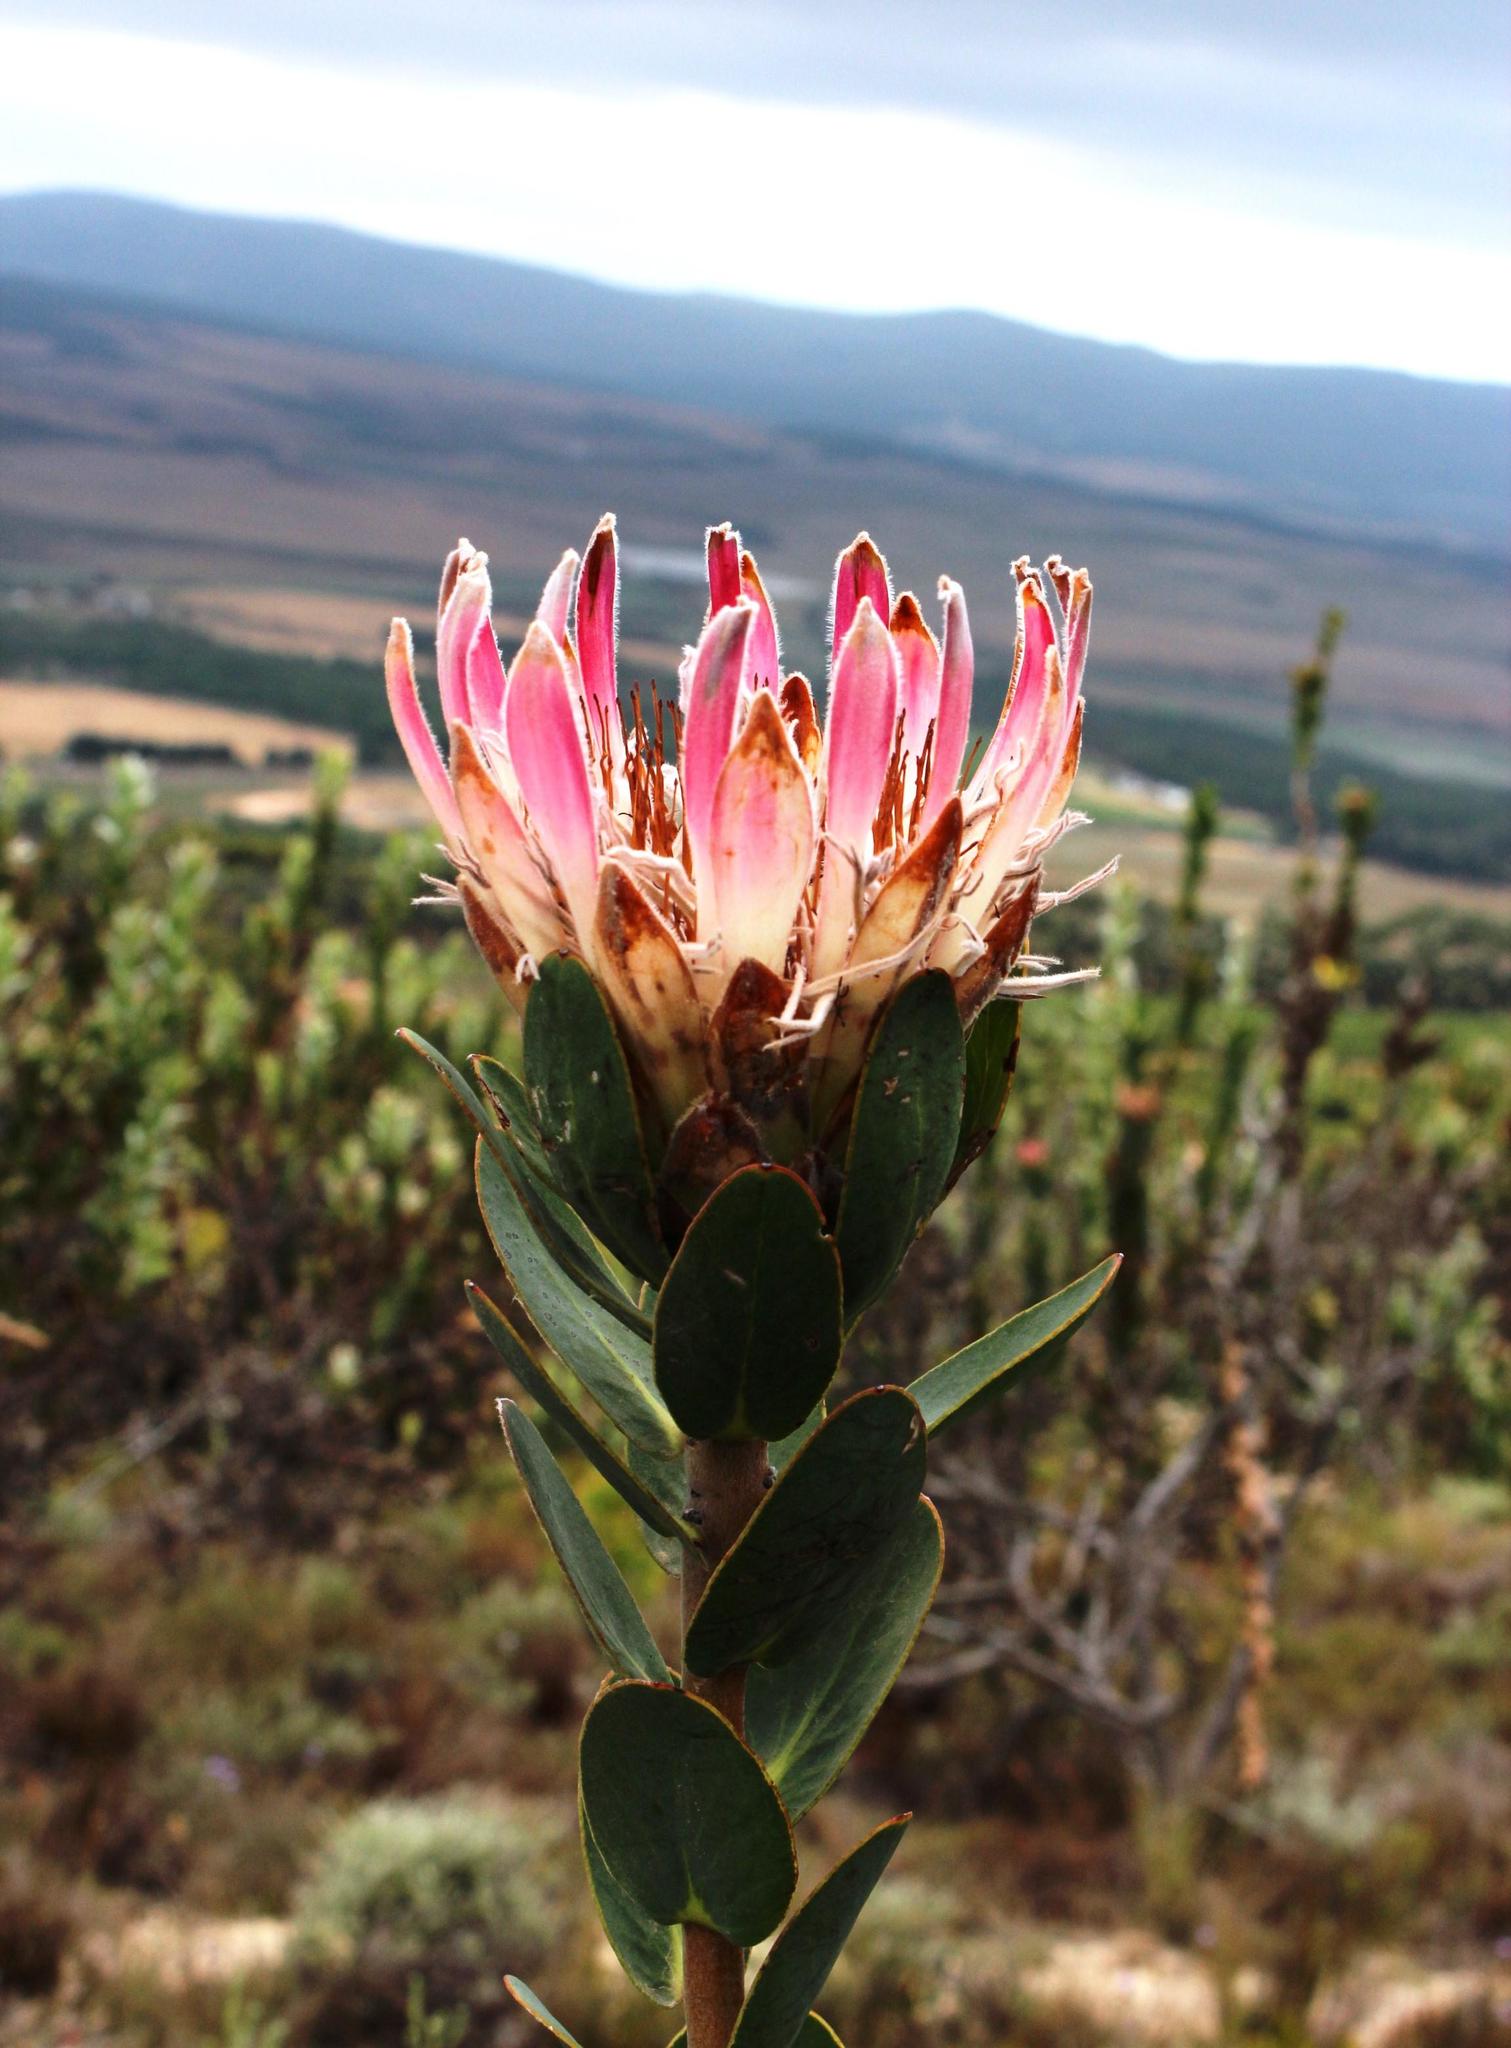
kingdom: Plantae
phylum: Tracheophyta
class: Magnoliopsida
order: Proteales
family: Proteaceae
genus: Protea
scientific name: Protea compacta
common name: Bot river protea
